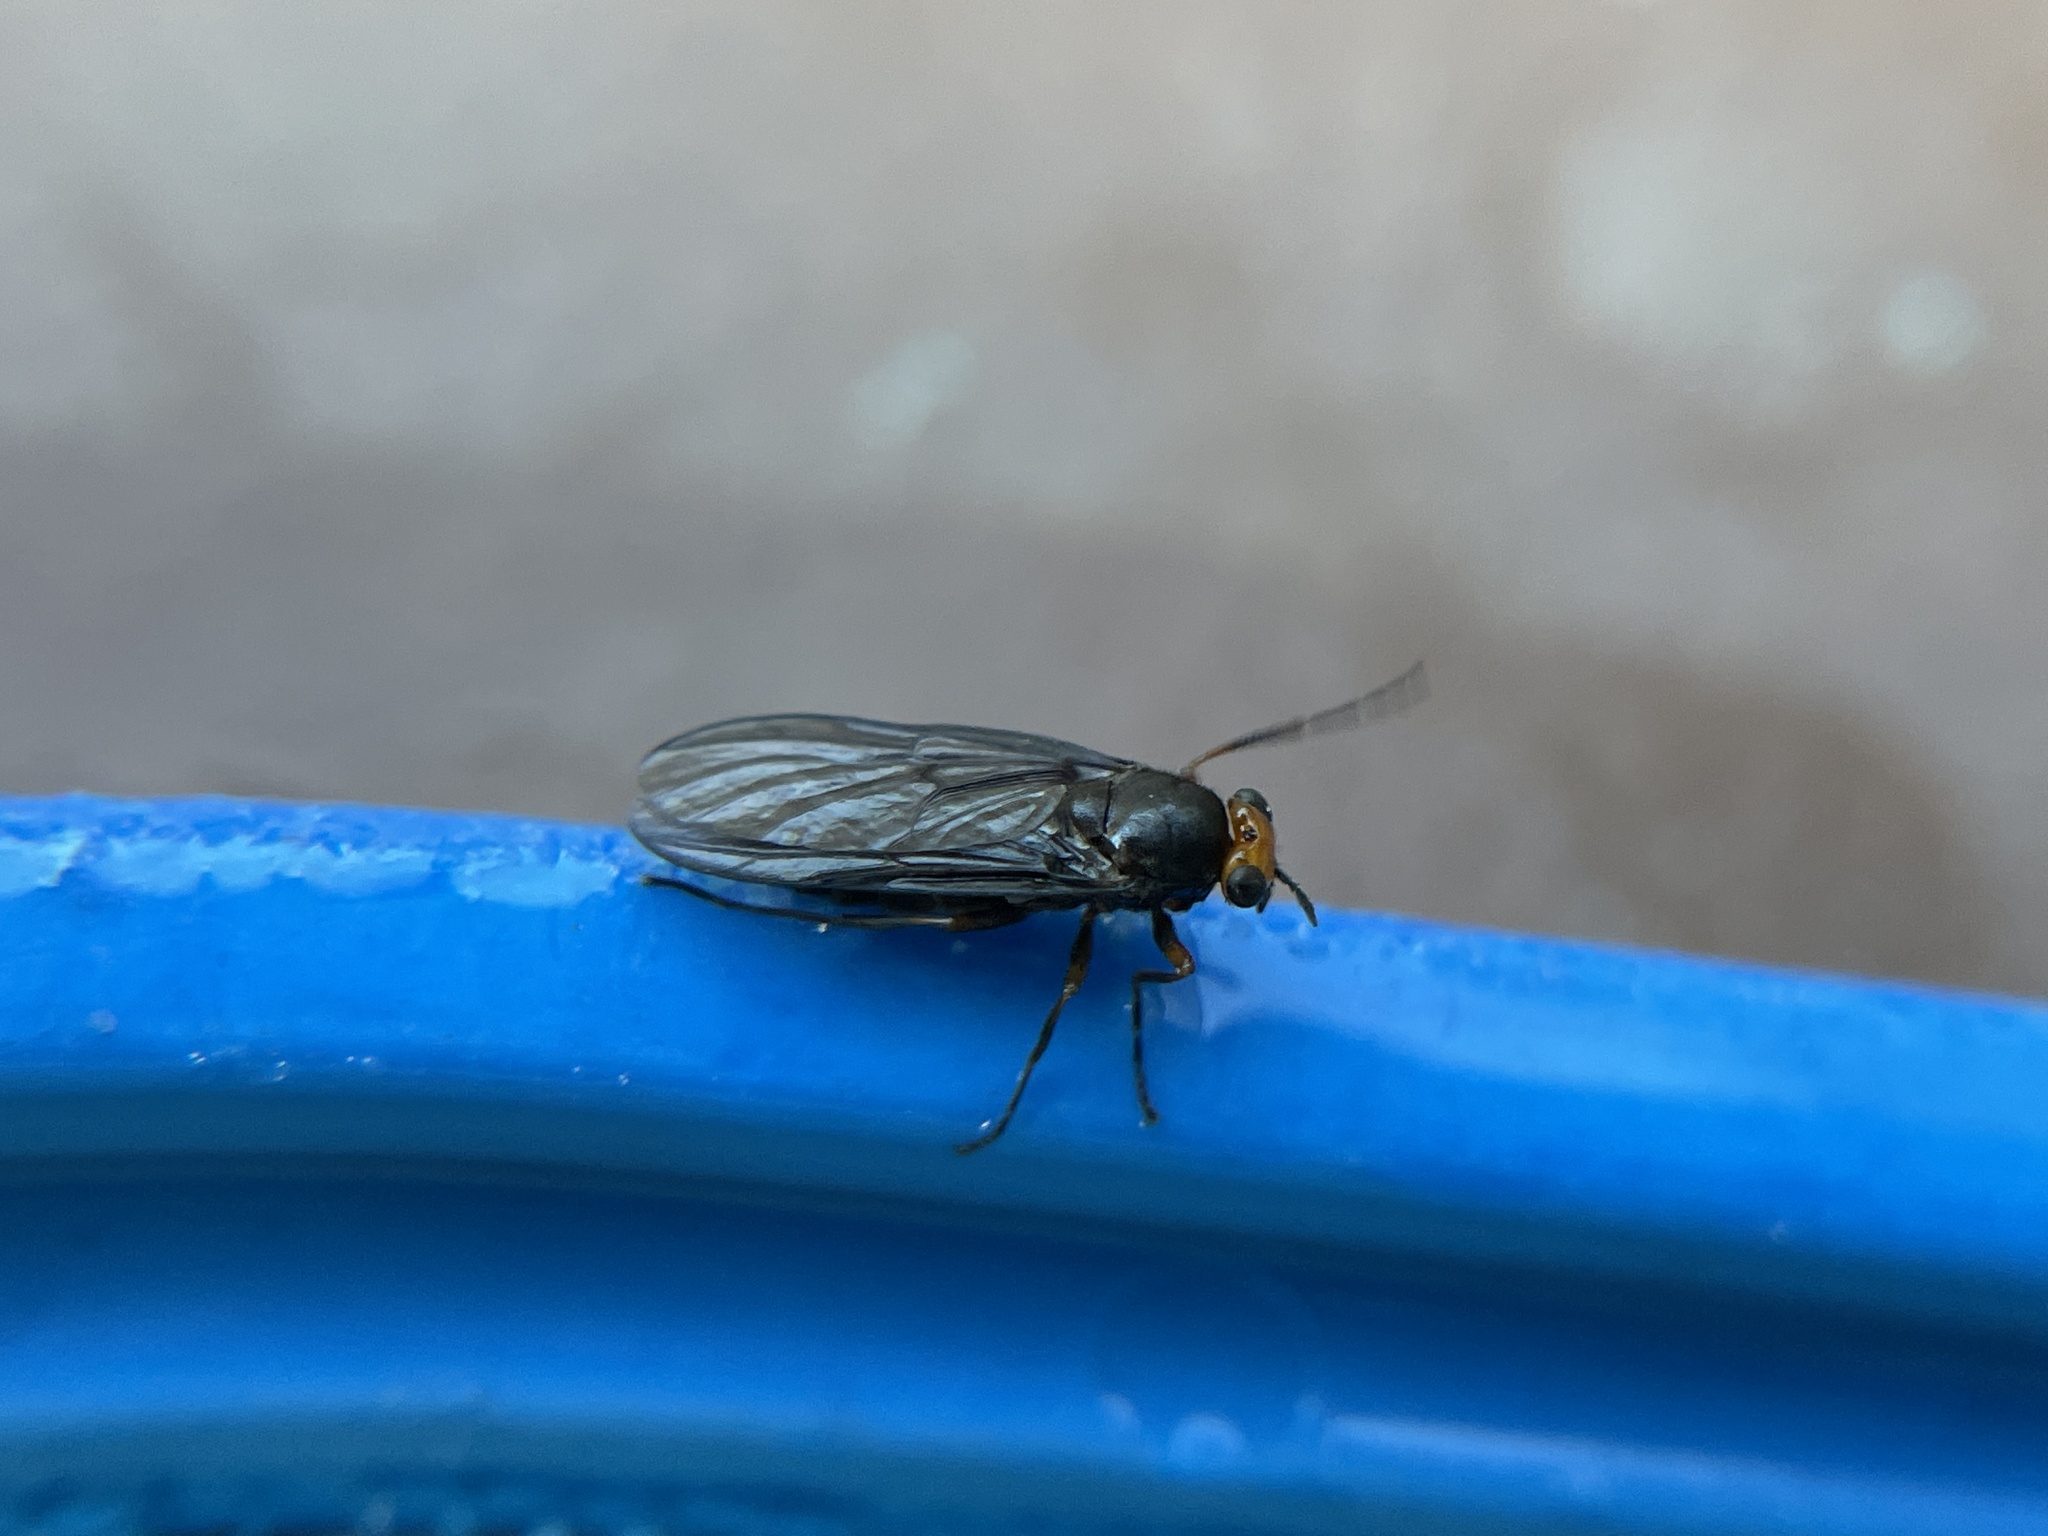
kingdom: Animalia
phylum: Arthropoda
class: Insecta
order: Diptera
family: Stratiomyidae
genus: Inopus
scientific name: Inopus rubriceps
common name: Soldier fly
